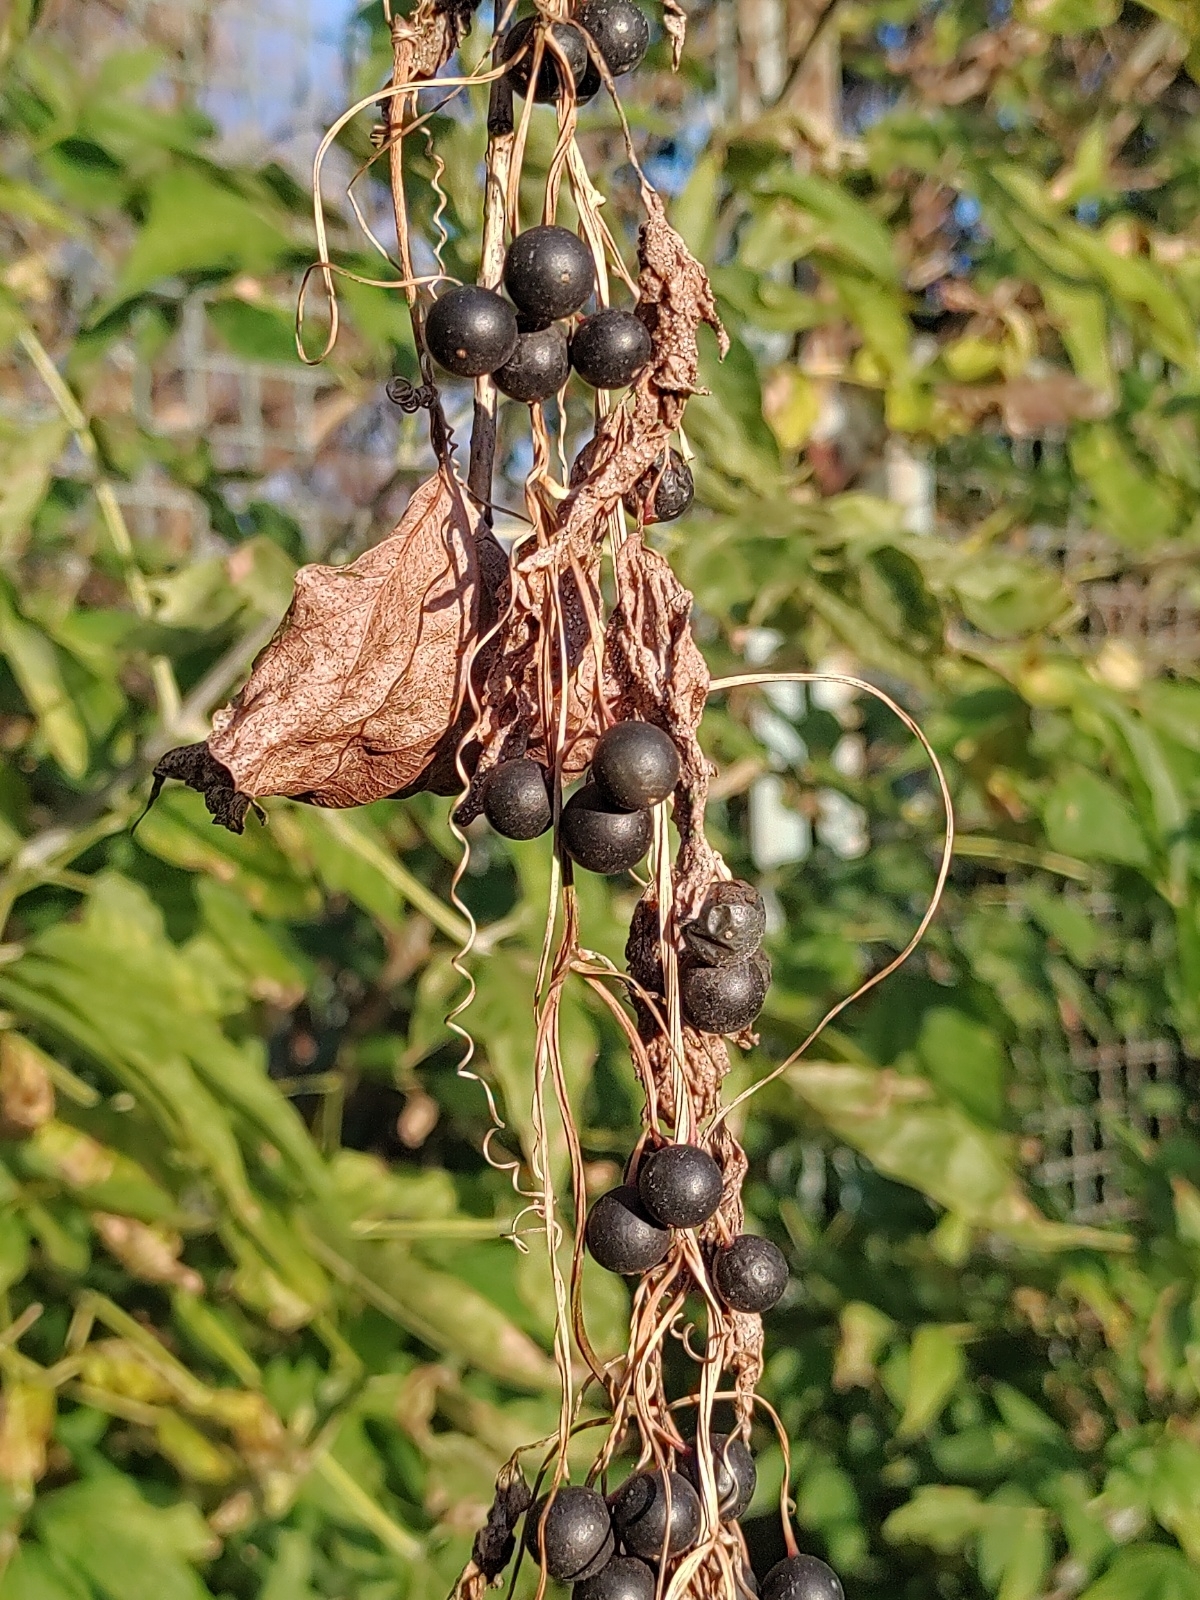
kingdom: Plantae
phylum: Tracheophyta
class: Magnoliopsida
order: Cucurbitales
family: Cucurbitaceae
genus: Bryonia
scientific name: Bryonia alba
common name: White bryony
